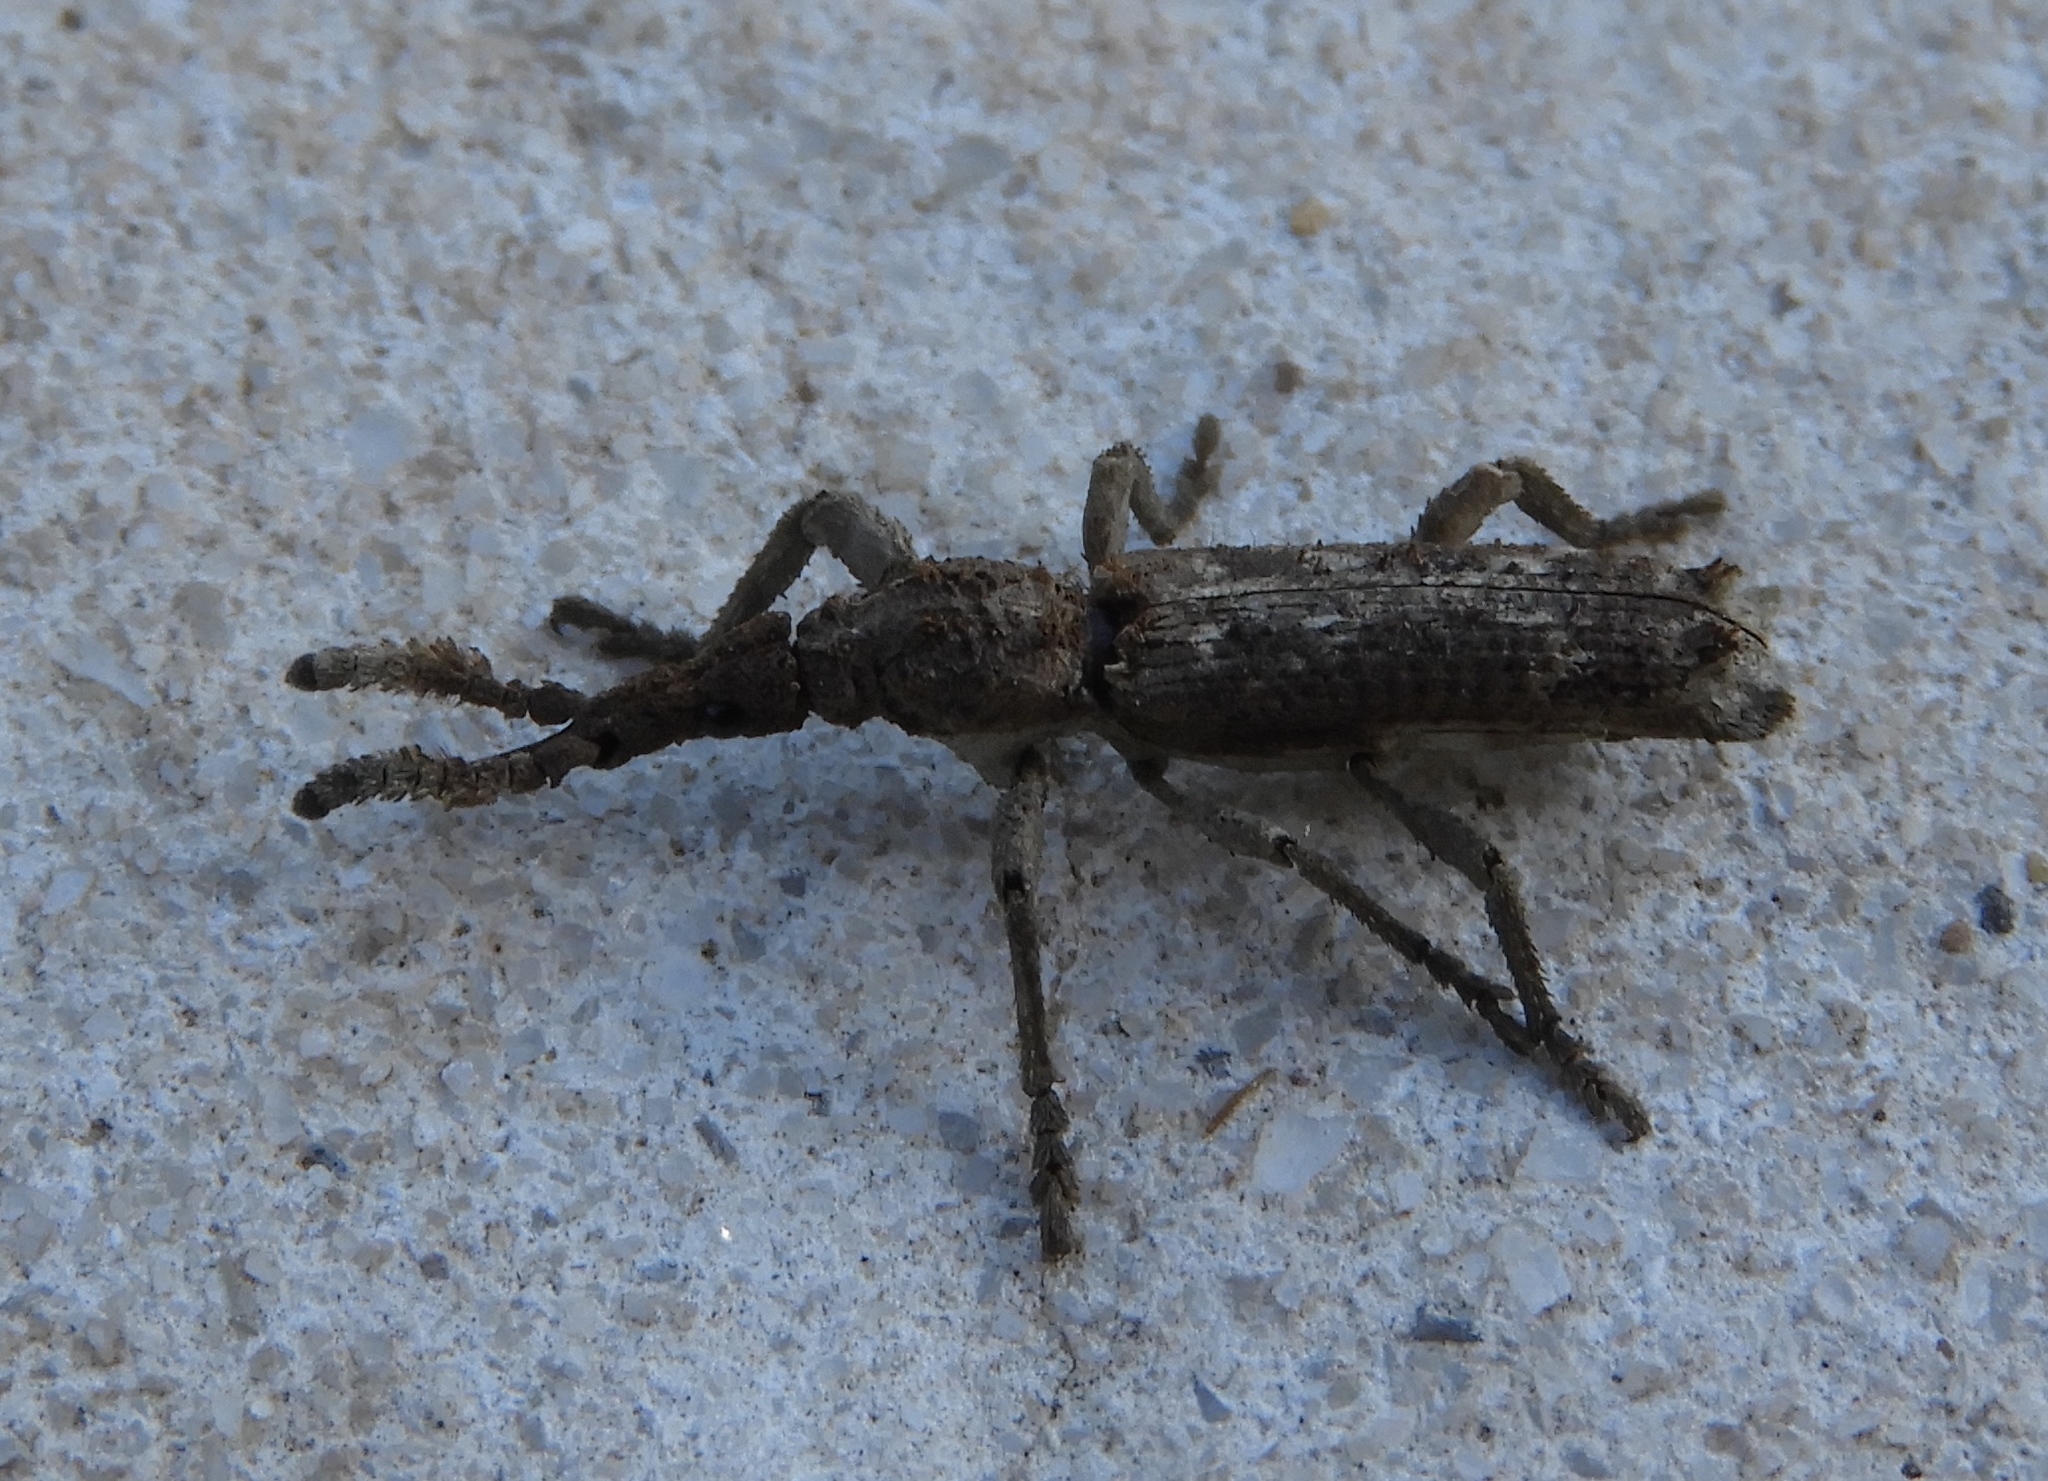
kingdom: Animalia
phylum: Arthropoda
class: Insecta
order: Coleoptera
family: Brentidae
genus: Ulocerus
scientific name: Ulocerus mexicanus
